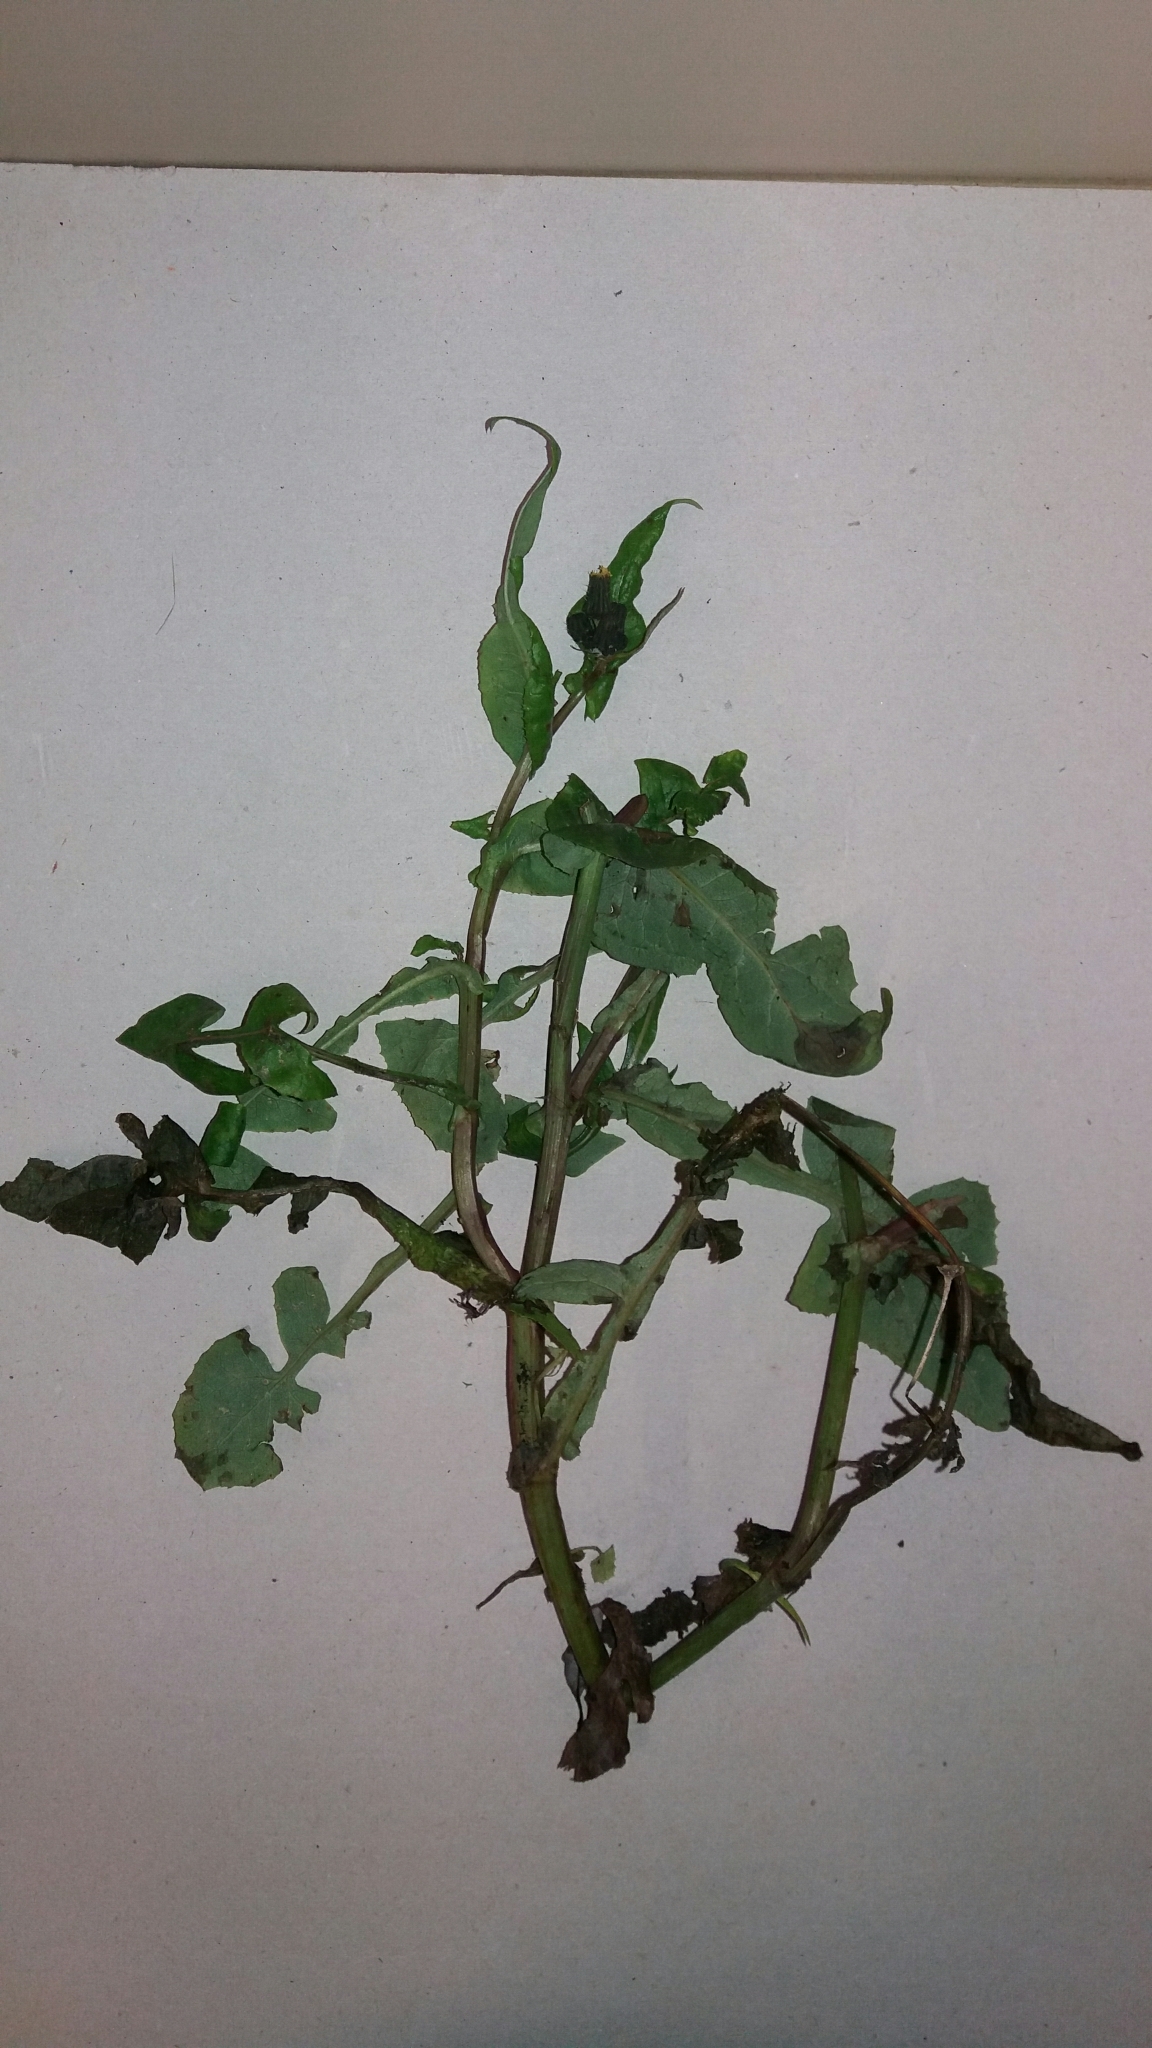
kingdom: Plantae
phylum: Tracheophyta
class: Magnoliopsida
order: Asterales
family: Asteraceae
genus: Sonchus
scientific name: Sonchus oleraceus
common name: Common sowthistle
